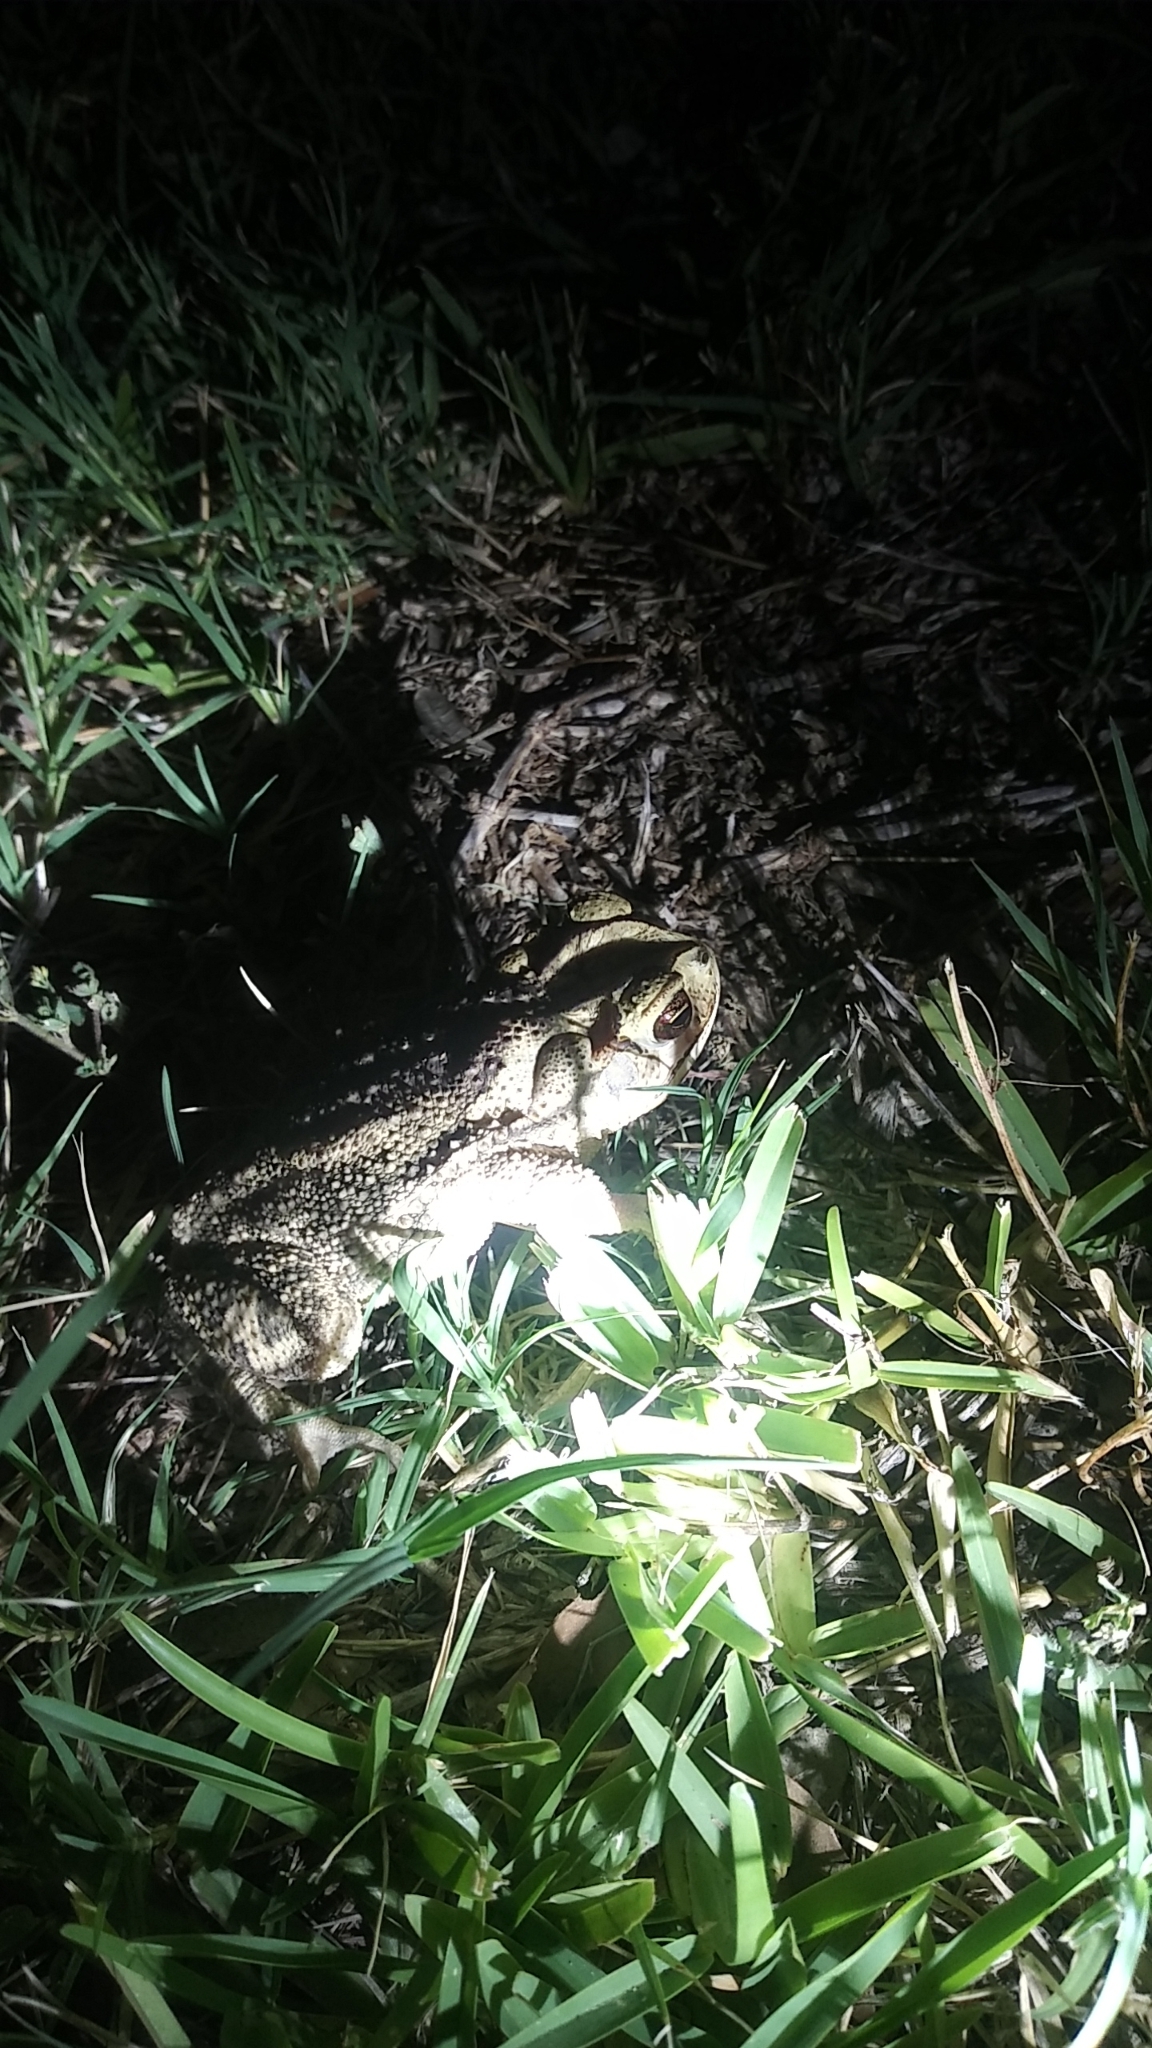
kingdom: Animalia
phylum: Chordata
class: Amphibia
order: Anura
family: Bufonidae
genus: Incilius
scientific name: Incilius nebulifer
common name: Gulf coast toad
